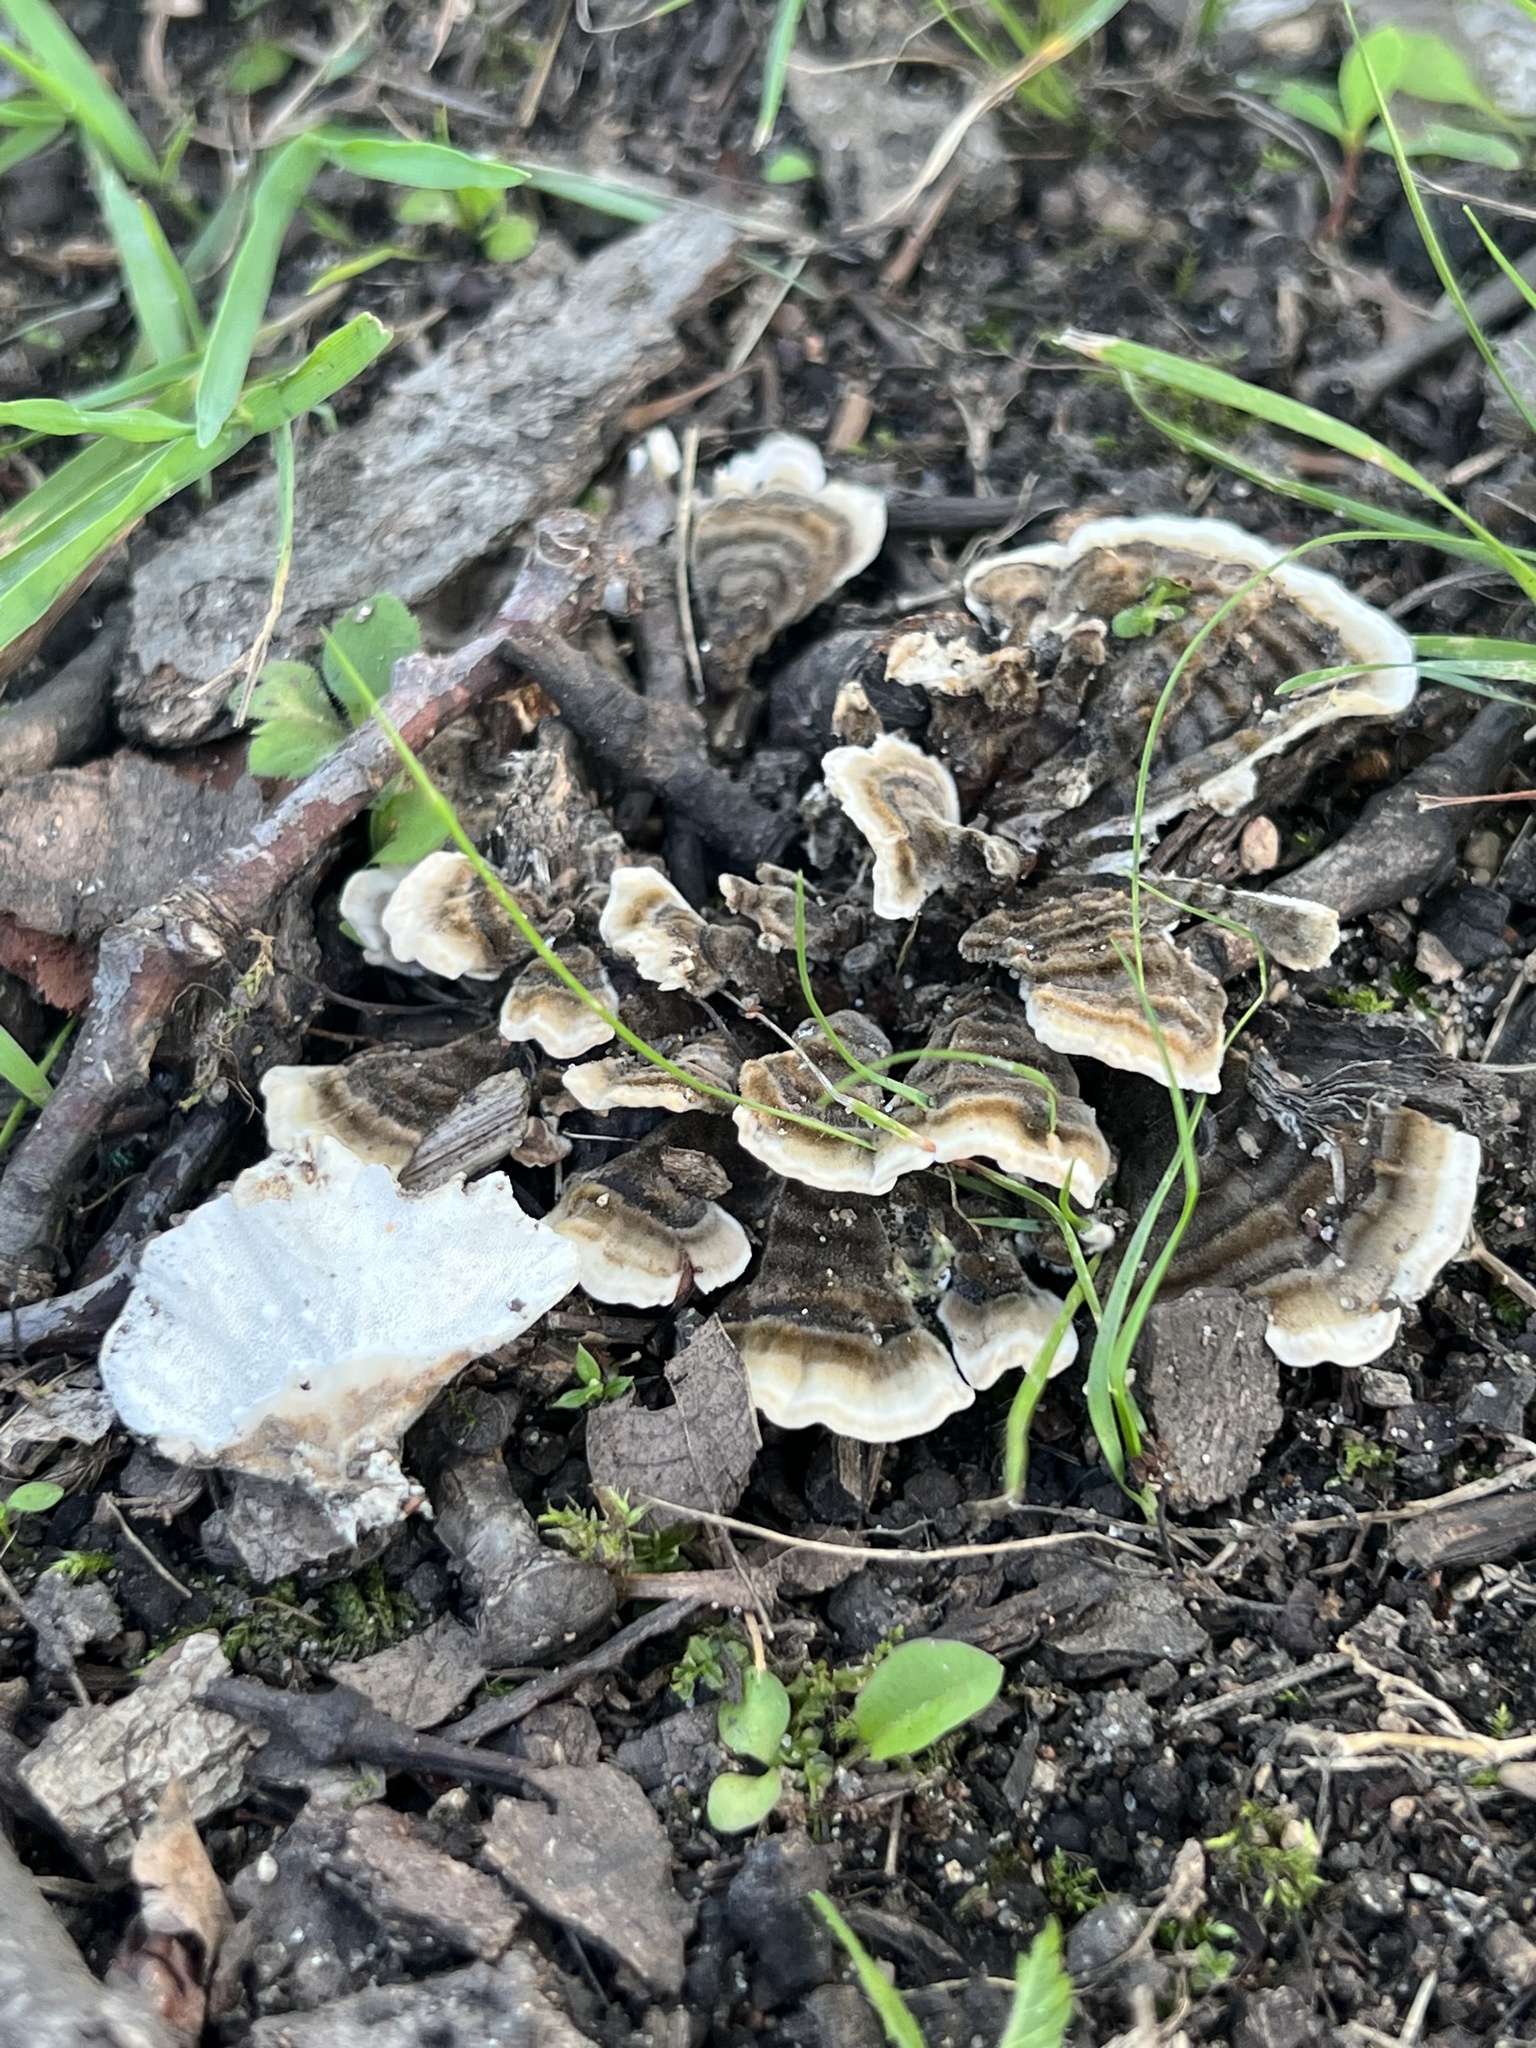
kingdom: Fungi
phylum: Basidiomycota
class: Agaricomycetes
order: Polyporales
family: Polyporaceae
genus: Trametes
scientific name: Trametes versicolor
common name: Turkeytail
